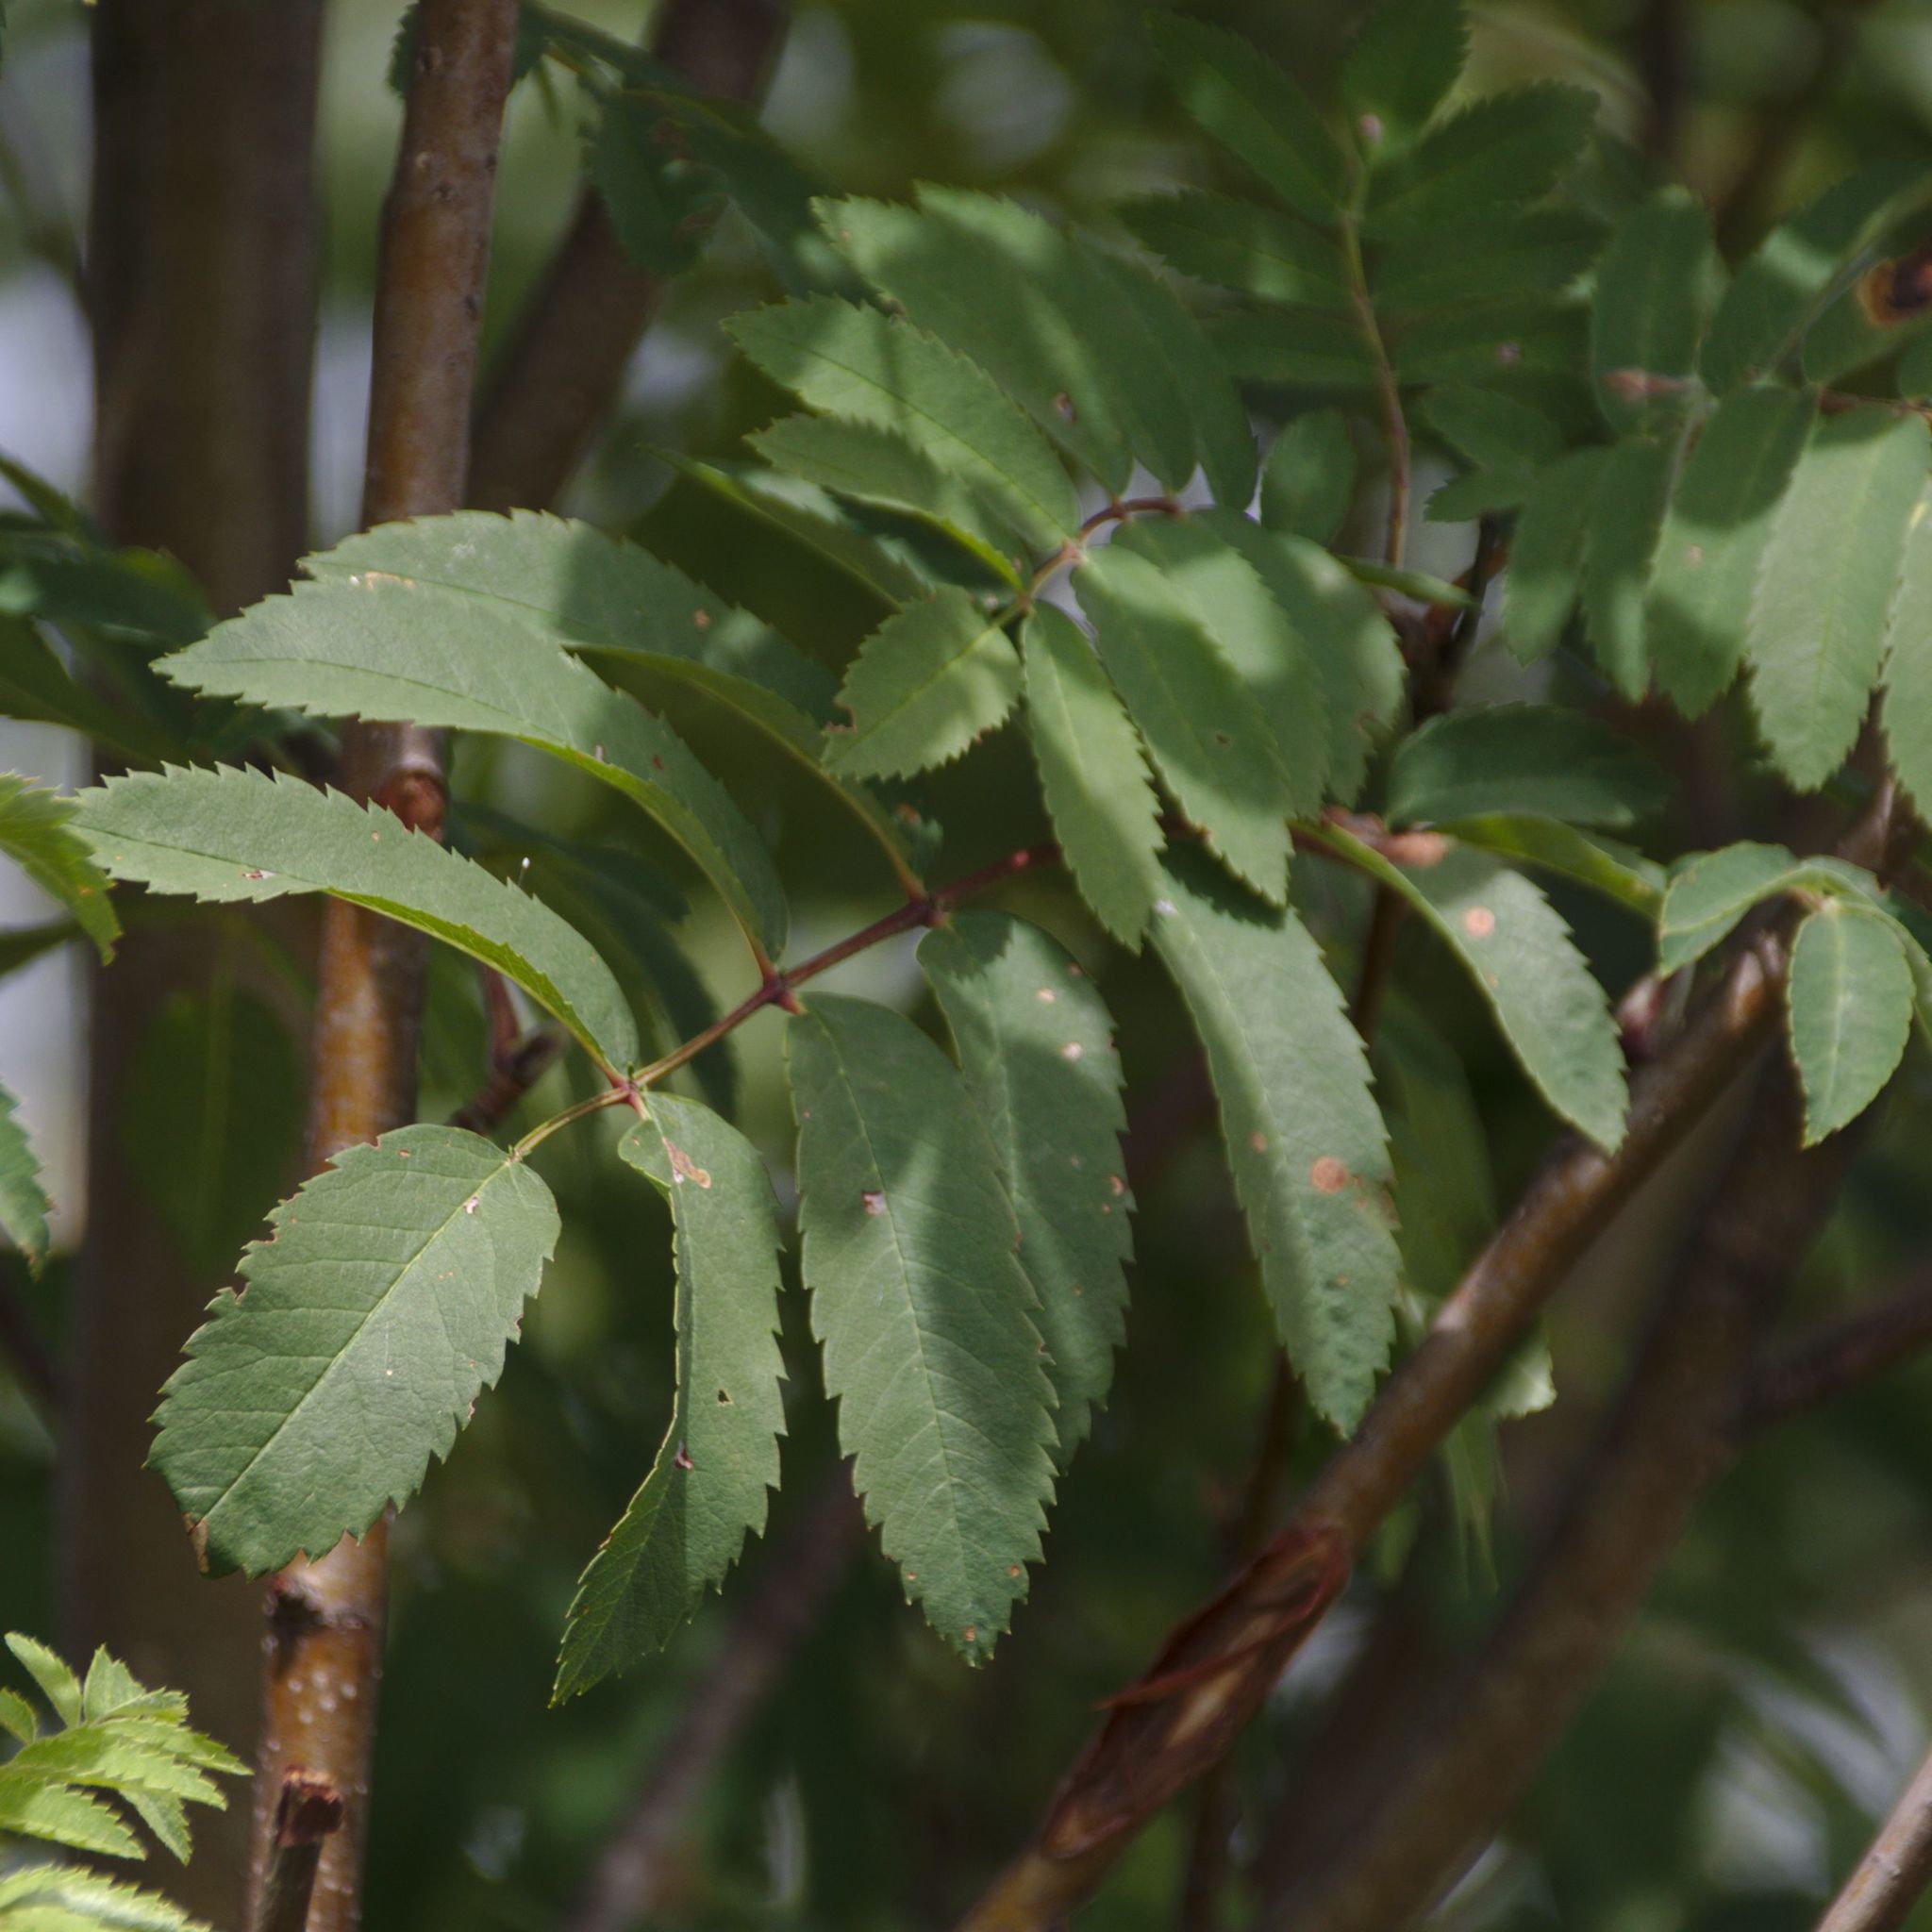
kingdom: Plantae
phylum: Tracheophyta
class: Magnoliopsida
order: Rosales
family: Rosaceae
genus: Sorbus
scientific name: Sorbus aucuparia
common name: Rowan
